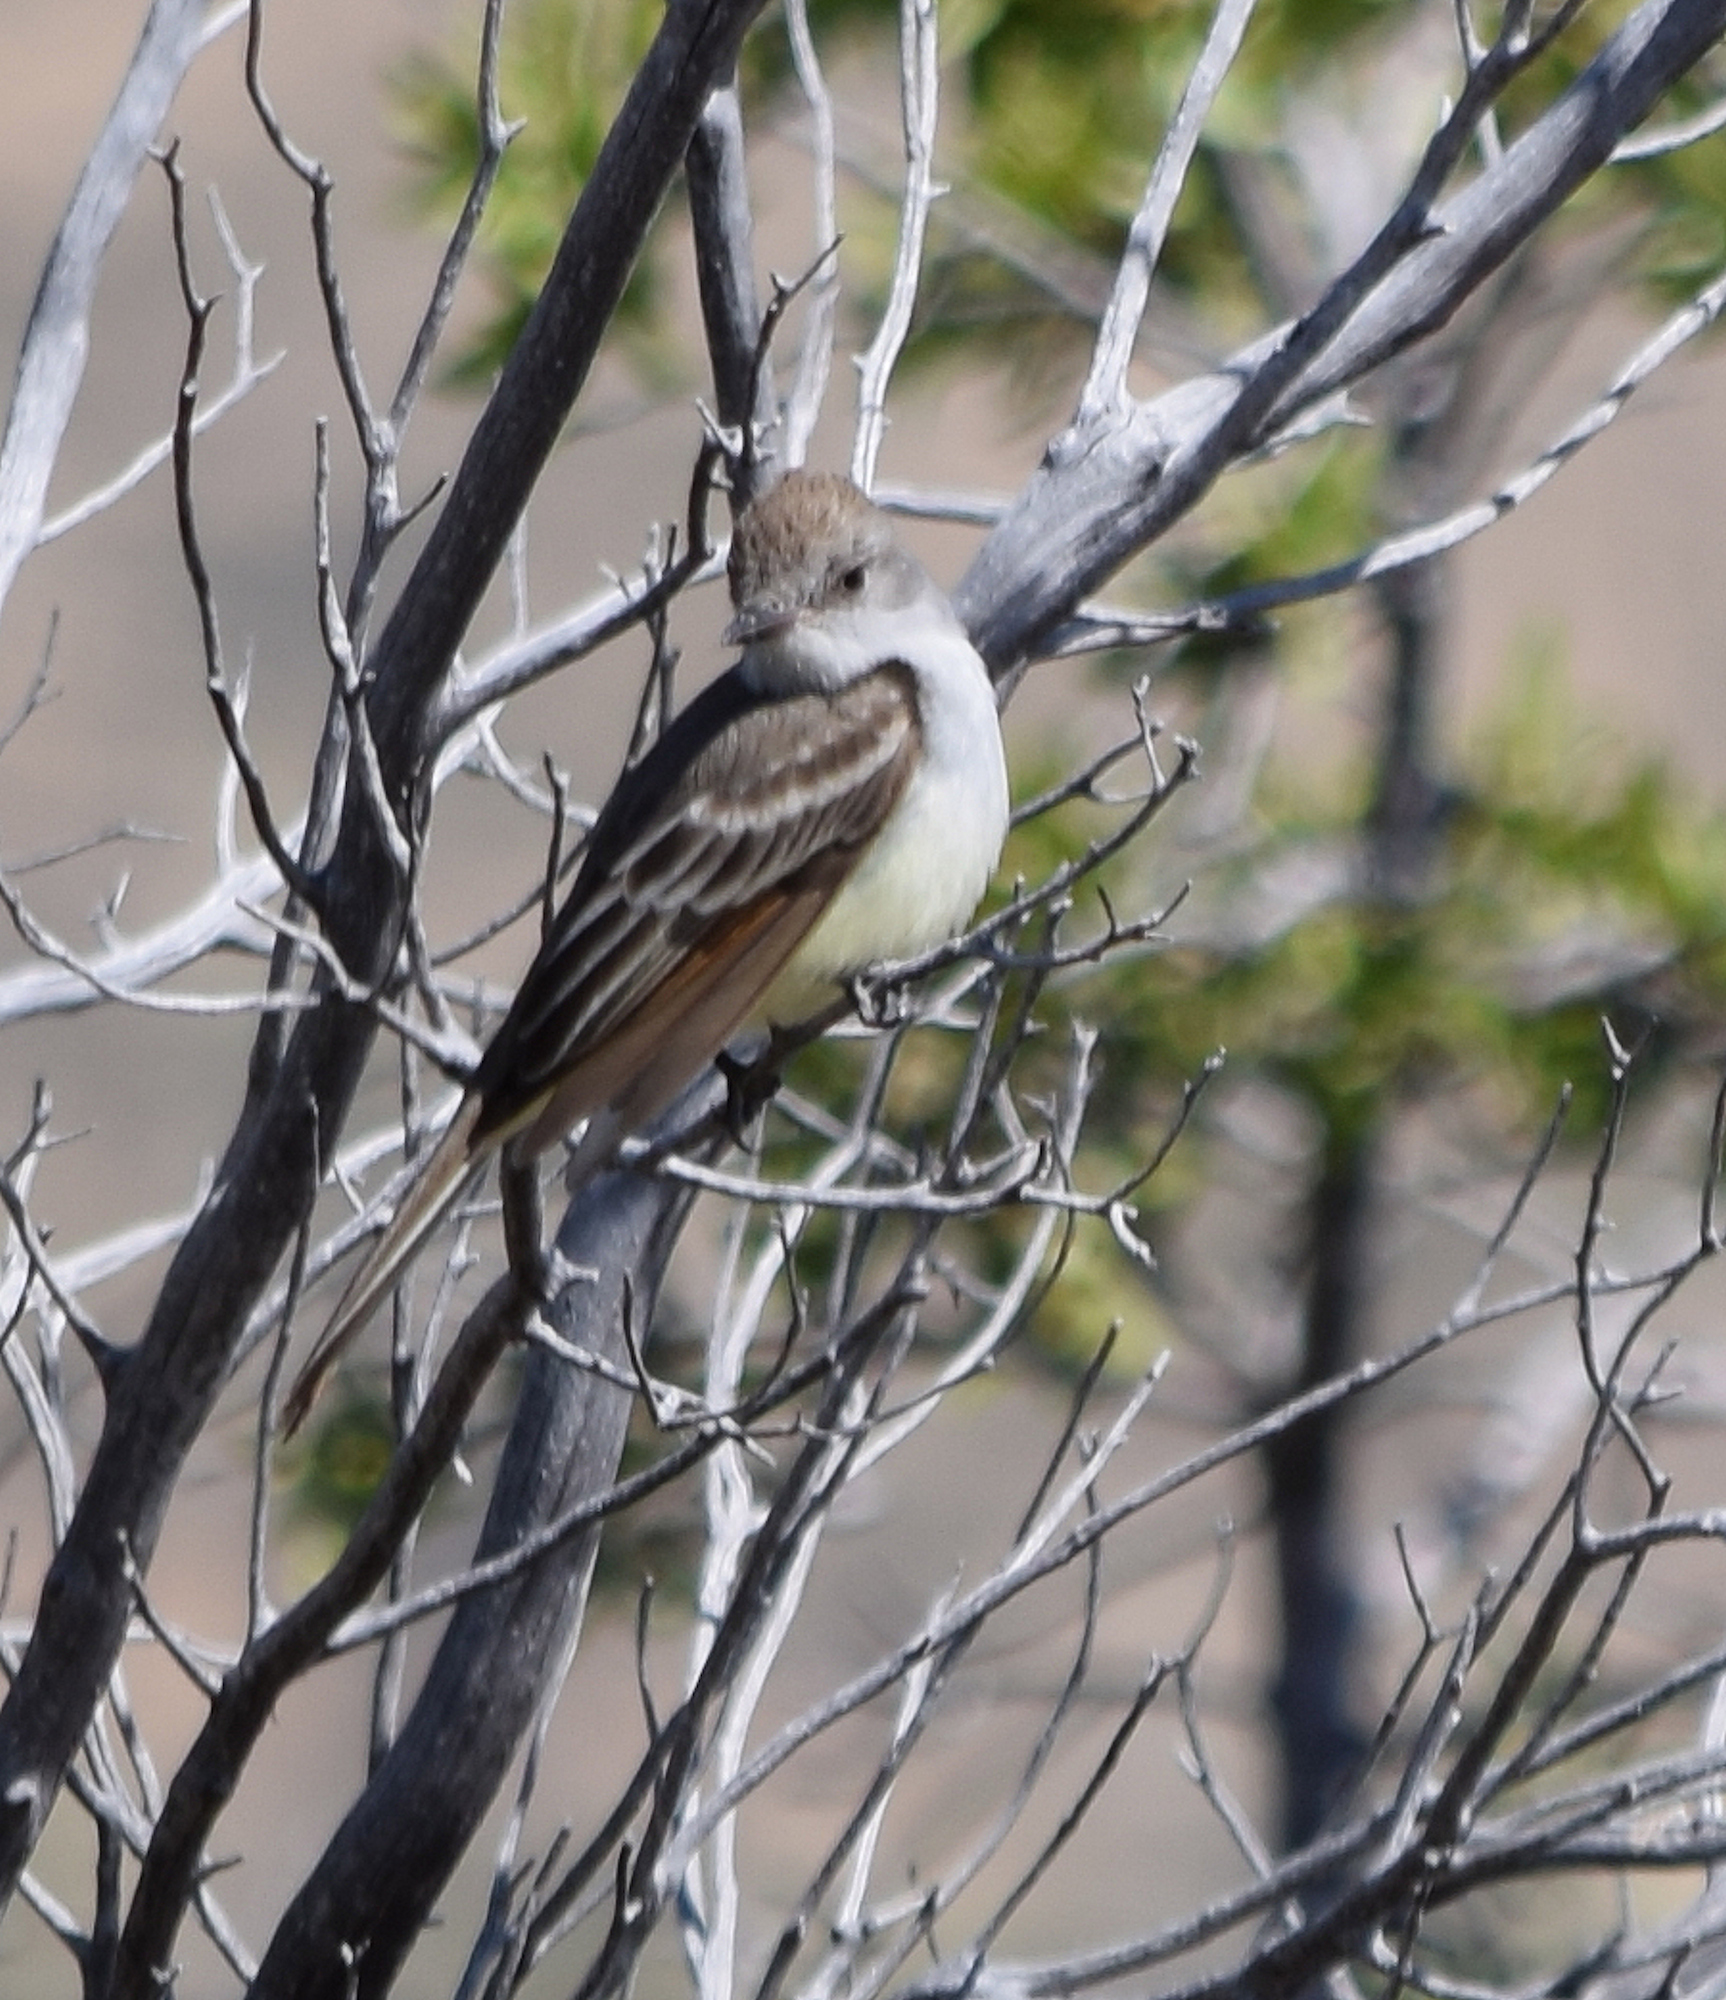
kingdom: Animalia
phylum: Chordata
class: Aves
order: Passeriformes
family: Tyrannidae
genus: Myiarchus
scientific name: Myiarchus cinerascens
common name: Ash-throated flycatcher
